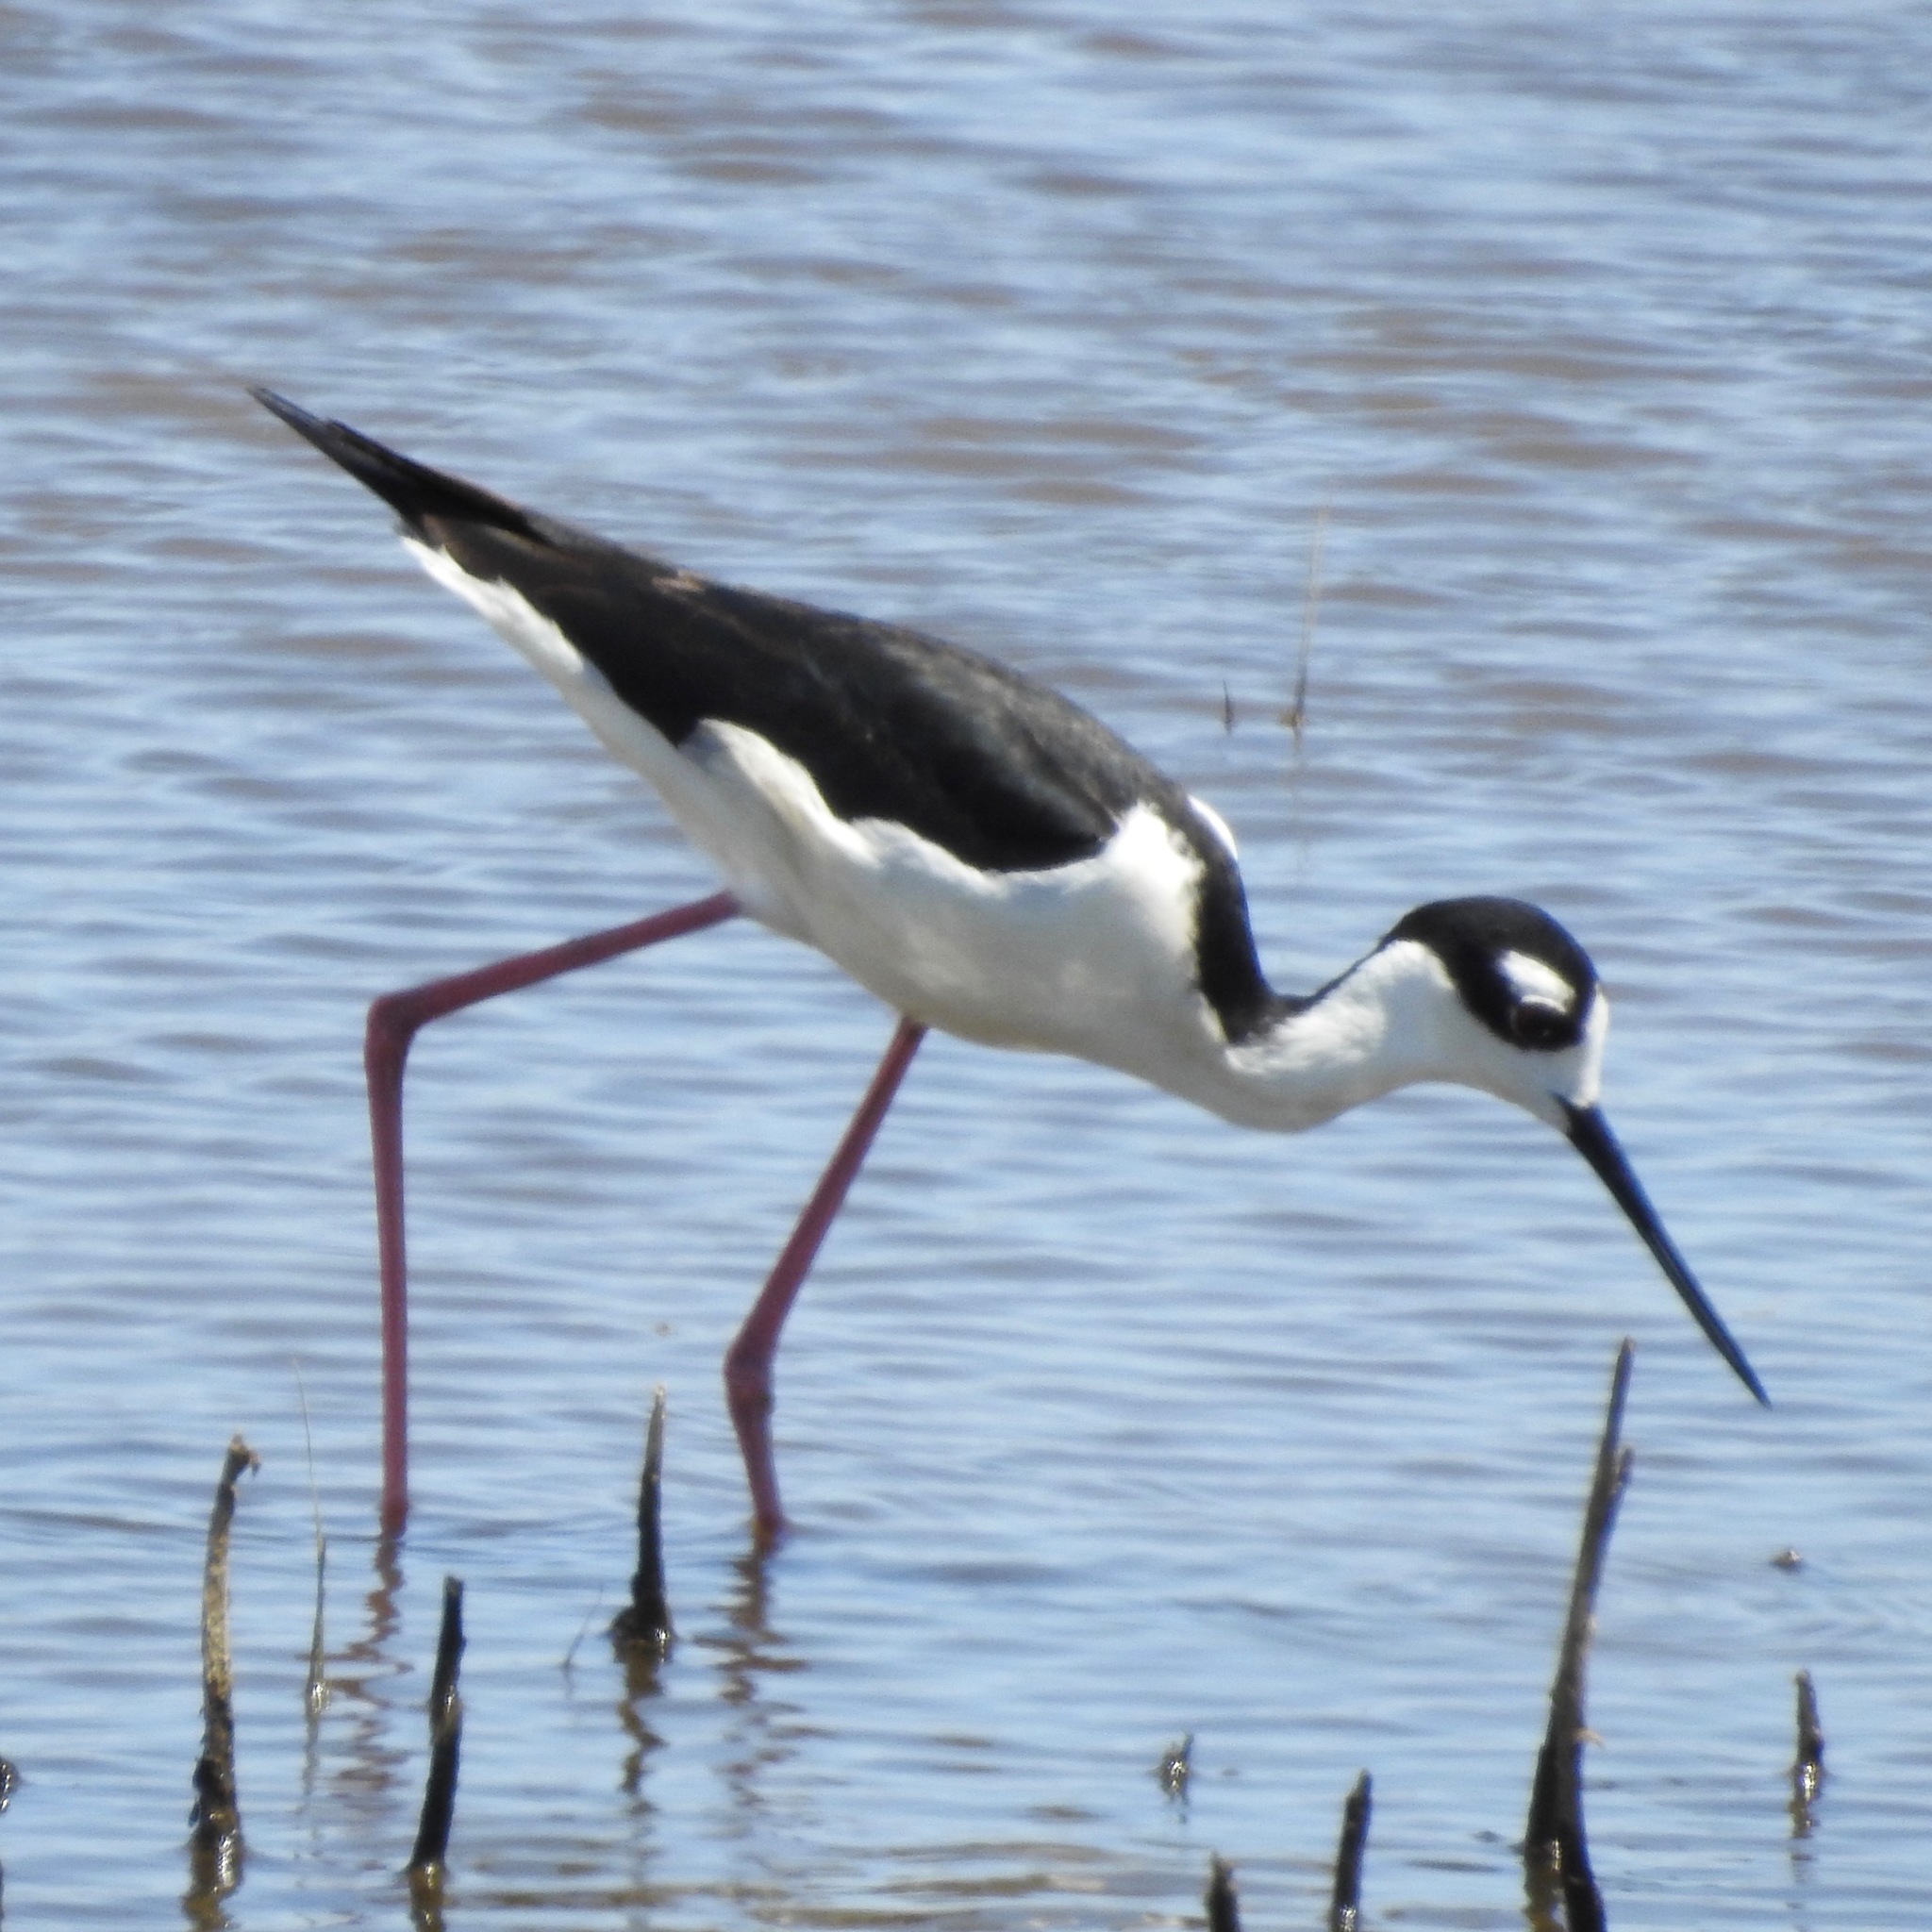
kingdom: Animalia
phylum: Chordata
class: Aves
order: Charadriiformes
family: Recurvirostridae
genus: Himantopus
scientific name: Himantopus mexicanus
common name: Black-necked stilt
